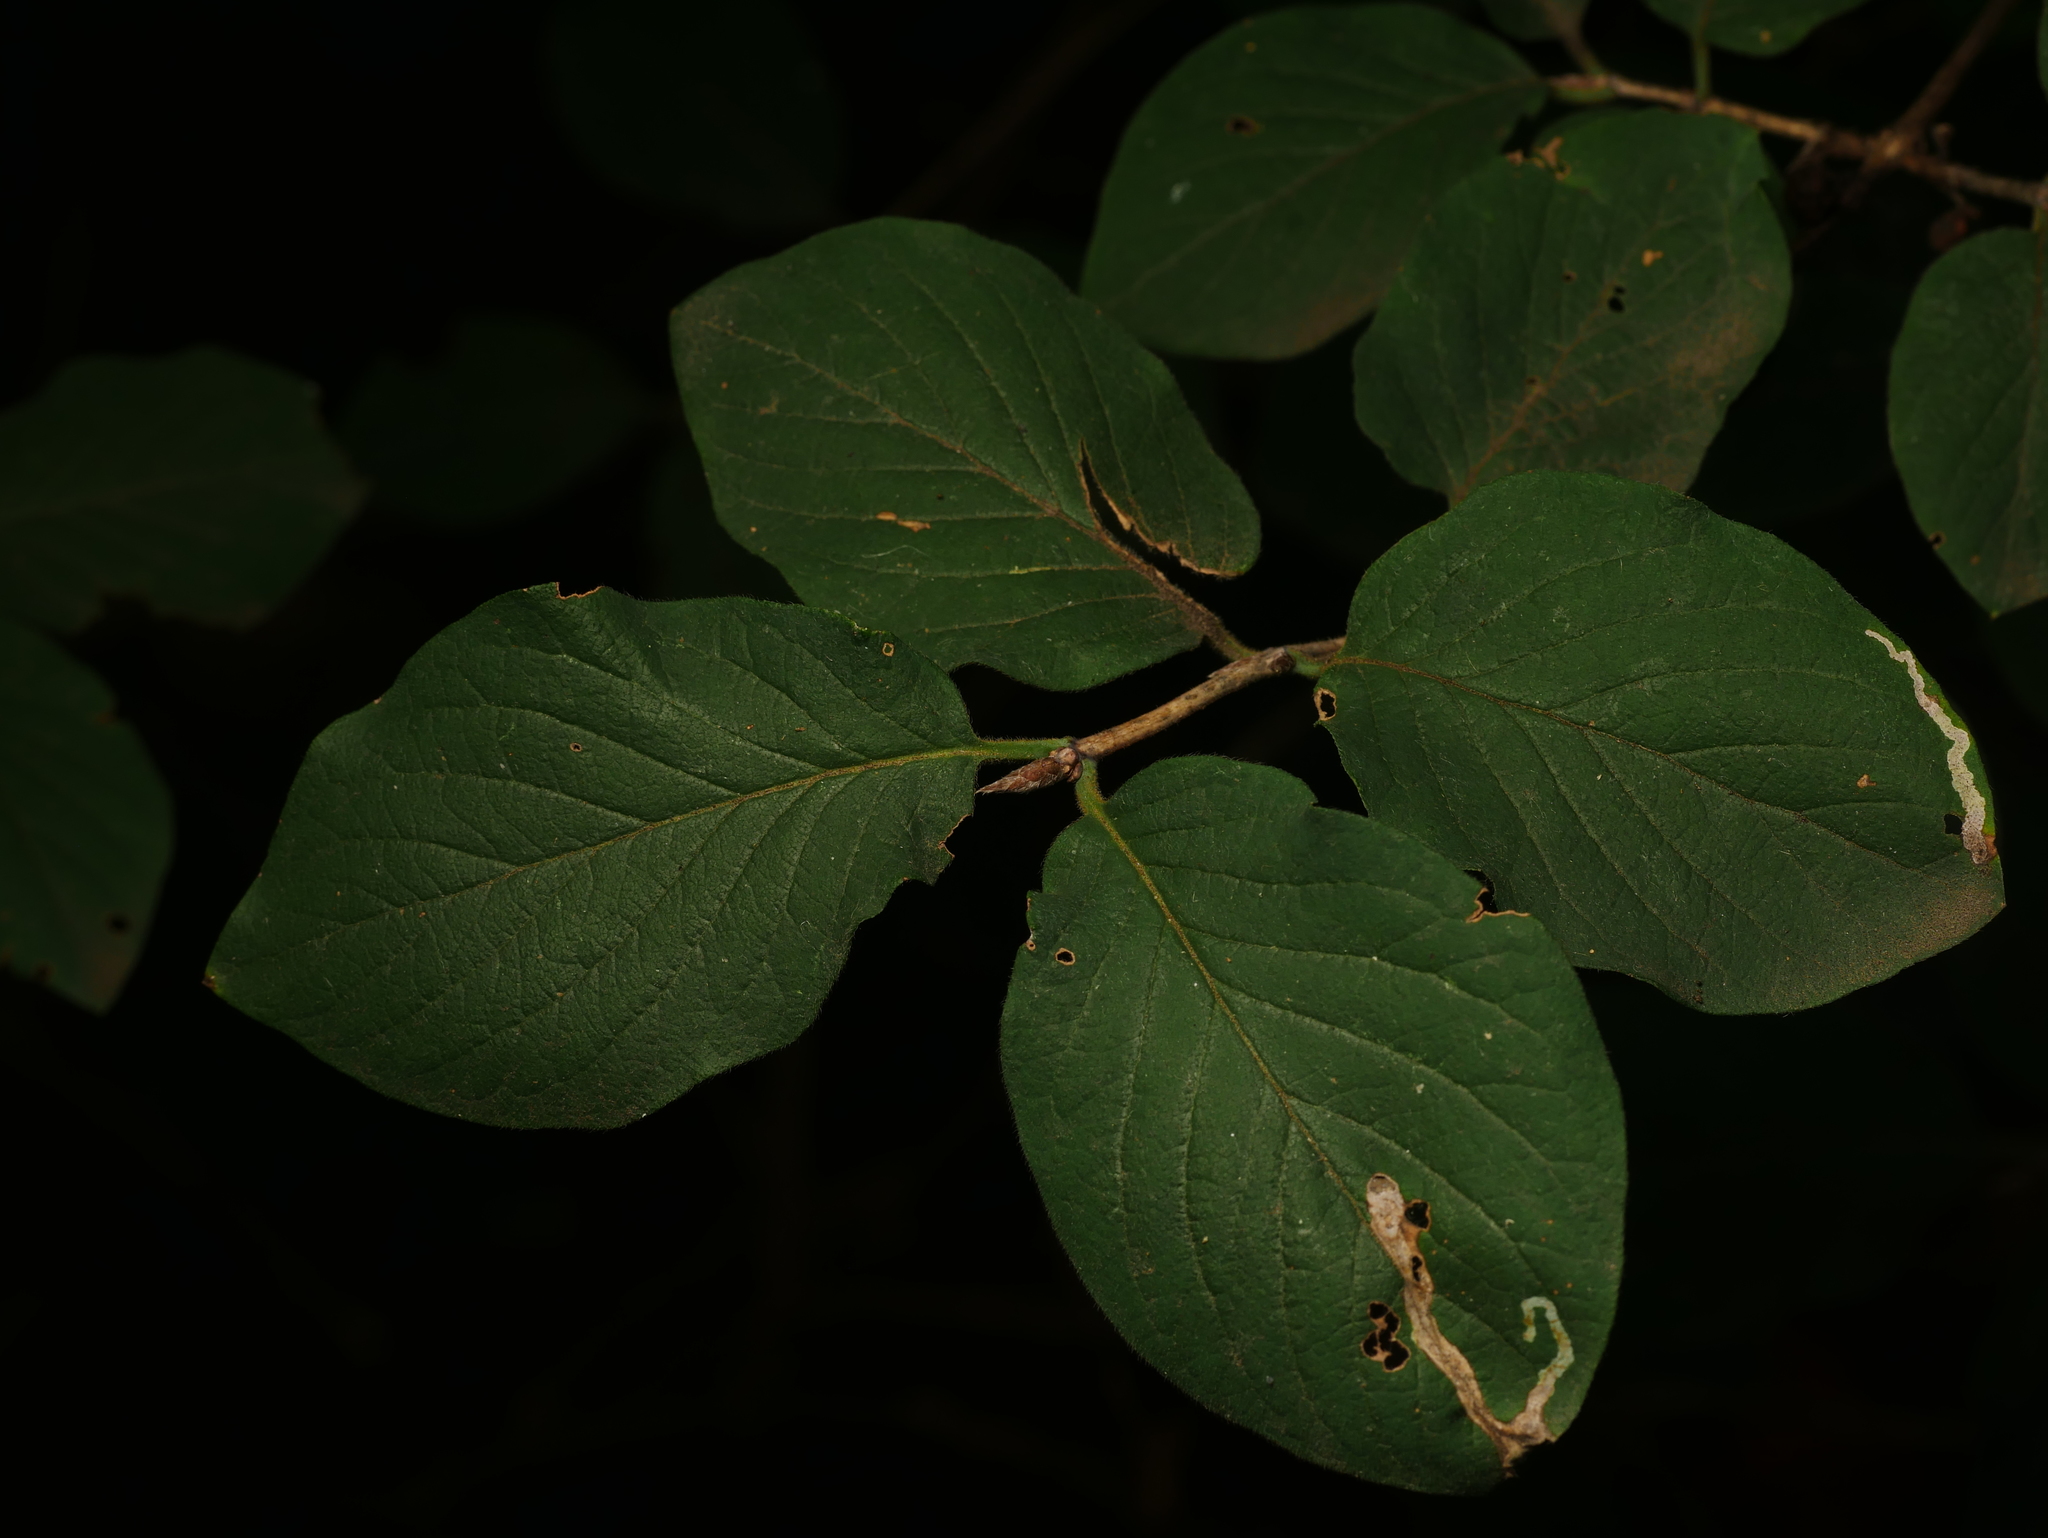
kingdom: Plantae
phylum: Tracheophyta
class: Magnoliopsida
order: Dipsacales
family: Caprifoliaceae
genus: Lonicera
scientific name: Lonicera xylosteum
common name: Fly honeysuckle
